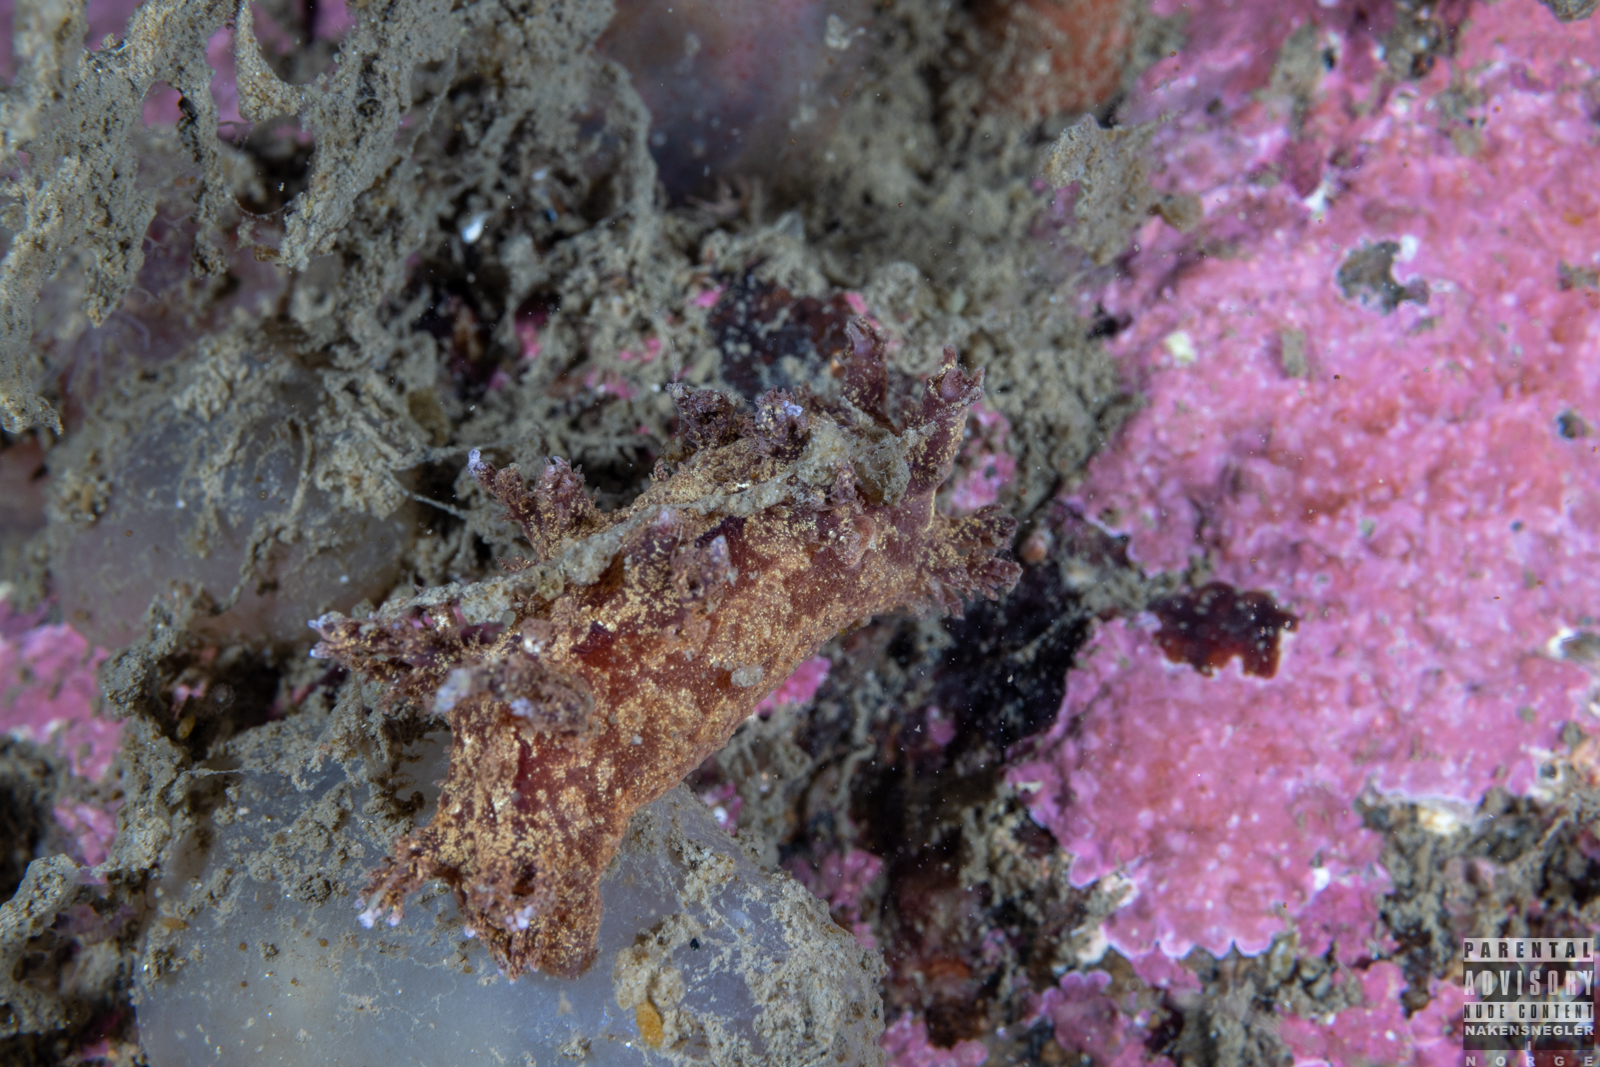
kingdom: Animalia
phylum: Mollusca
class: Gastropoda
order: Nudibranchia
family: Dendronotidae
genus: Dendronotus
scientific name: Dendronotus europaeus
